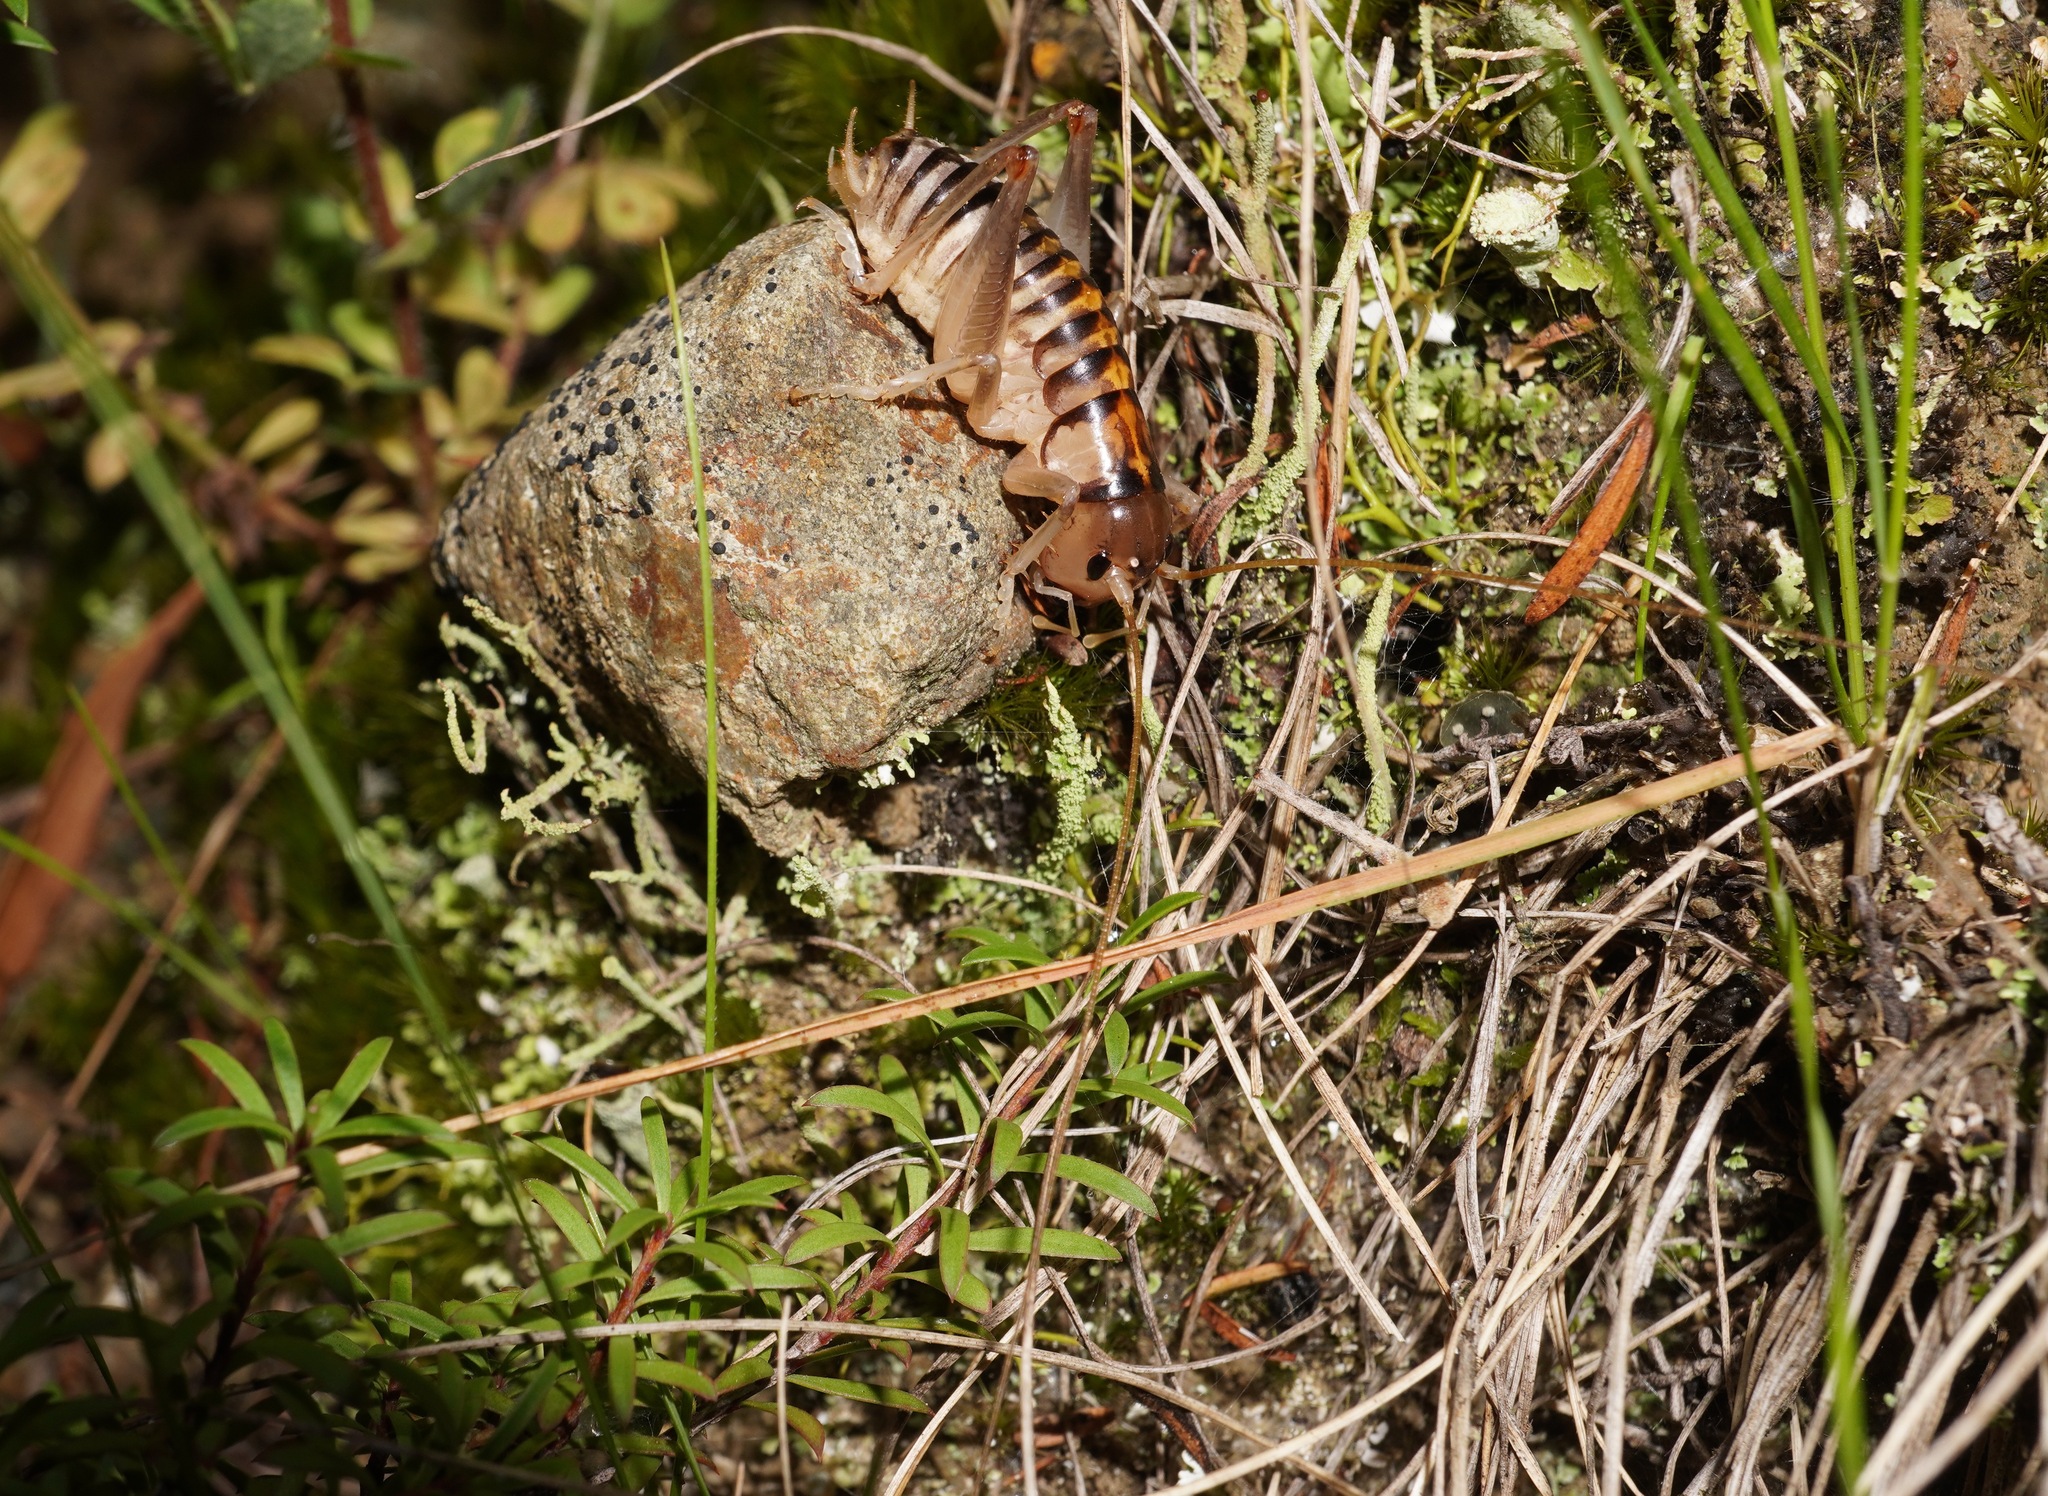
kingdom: Animalia
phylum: Arthropoda
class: Insecta
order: Orthoptera
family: Anostostomatidae
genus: Hemiandrus
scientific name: Hemiandrus bilobatus
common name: Wine wētā
